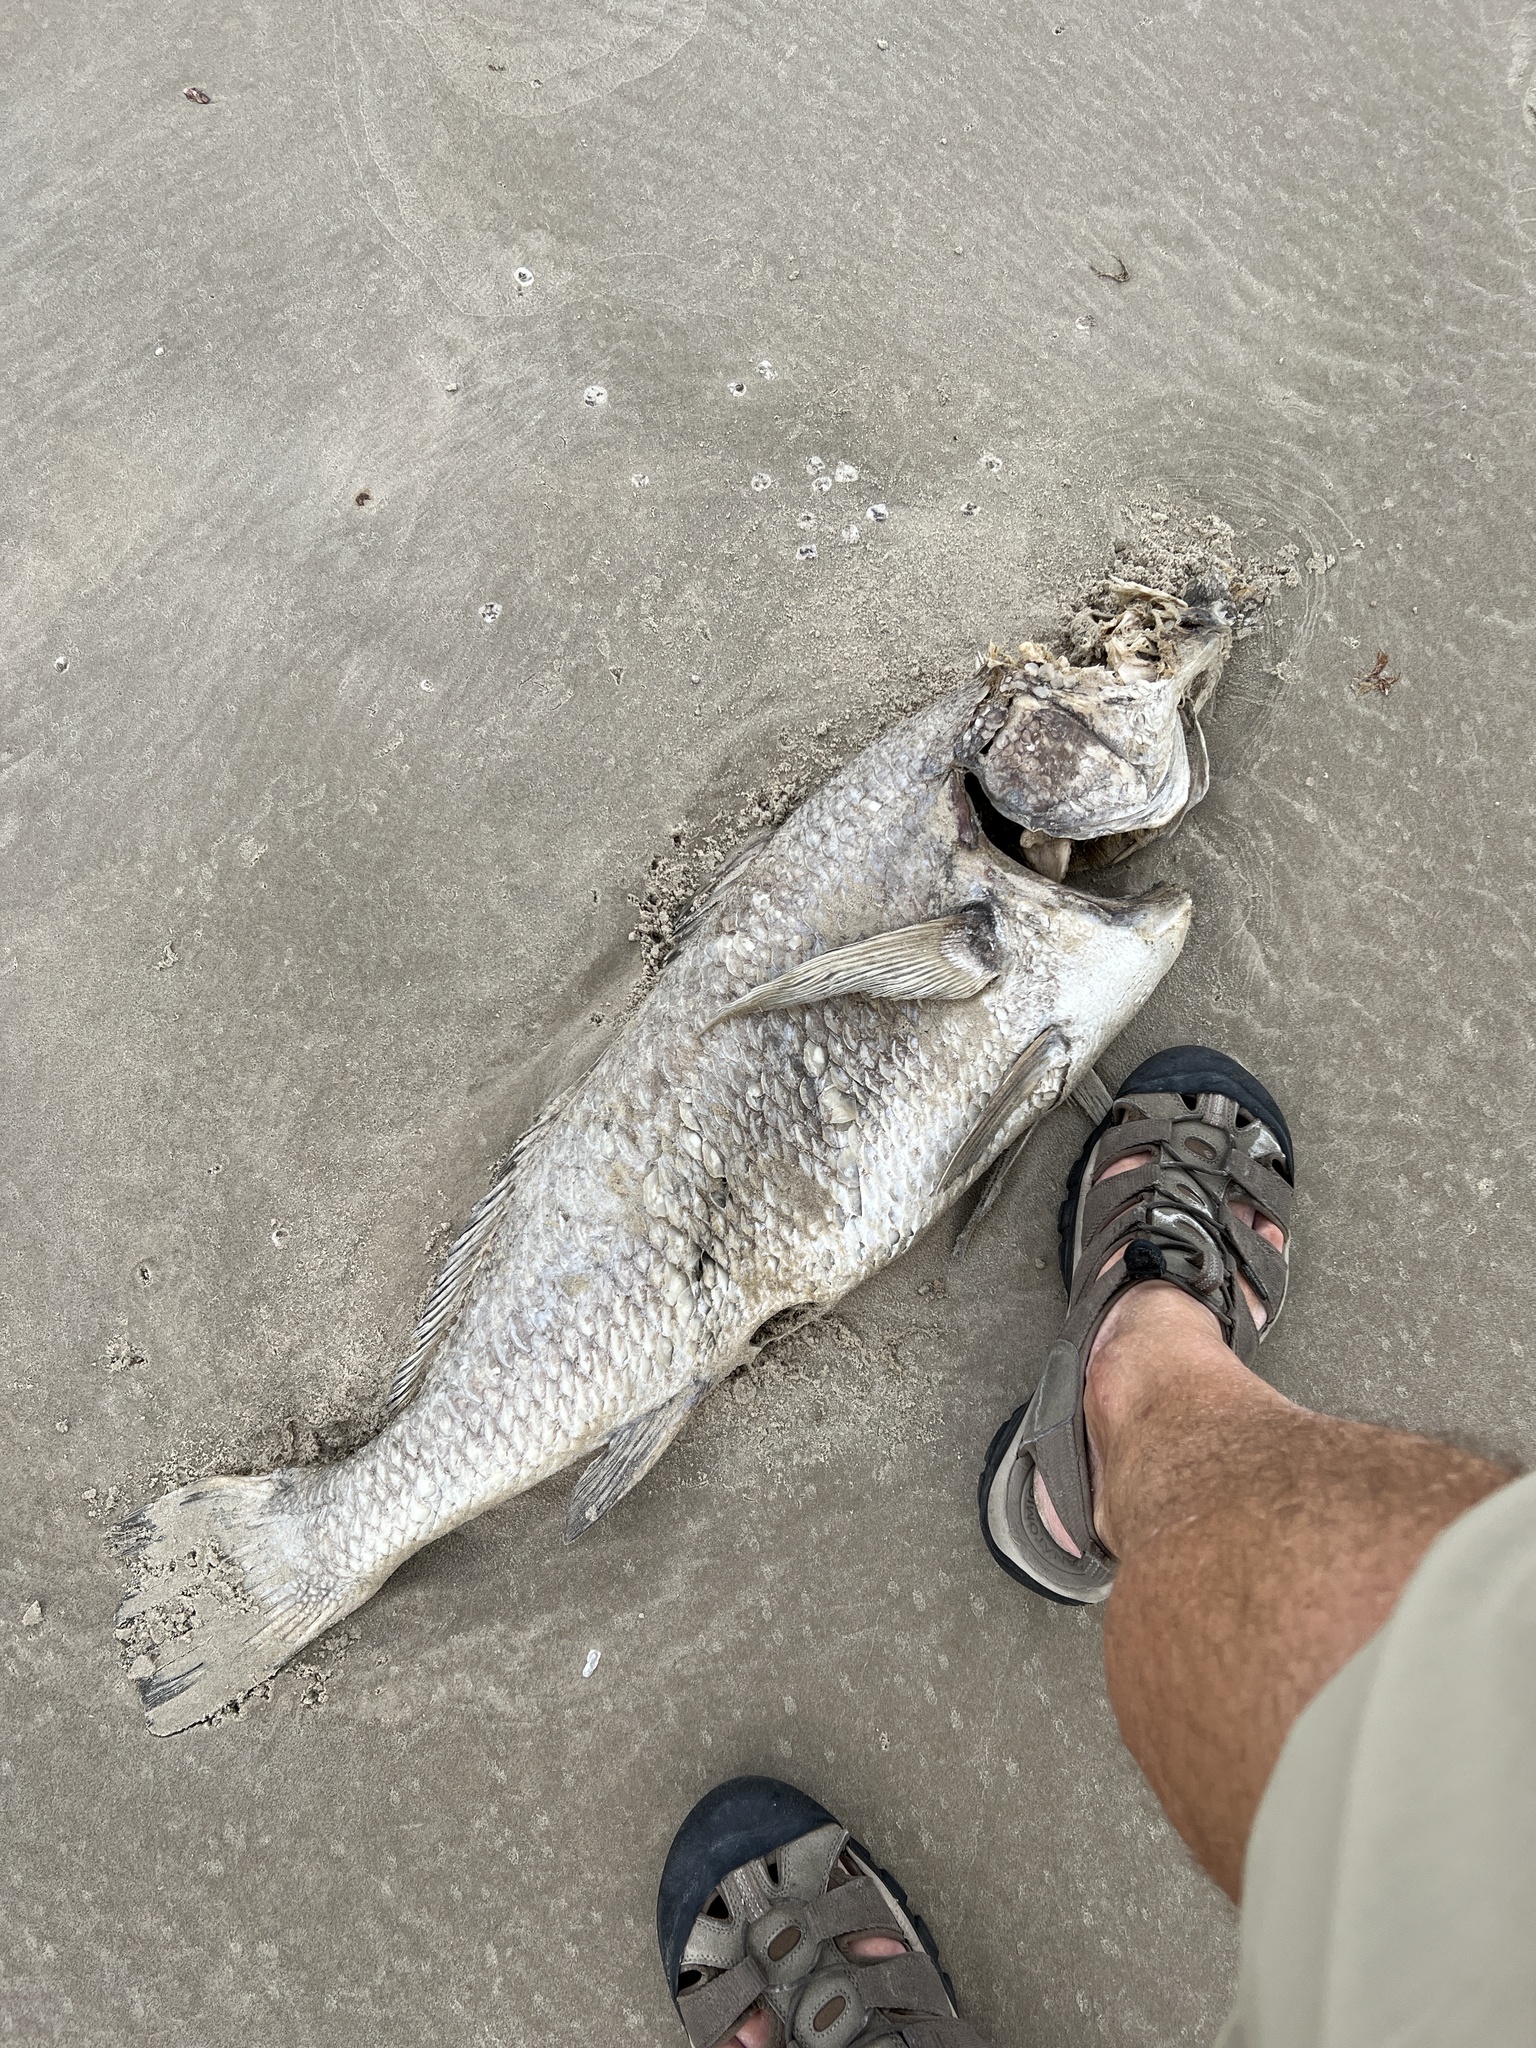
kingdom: Animalia
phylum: Chordata
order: Perciformes
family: Sciaenidae
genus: Pogonias
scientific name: Pogonias cromis
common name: Black drum
